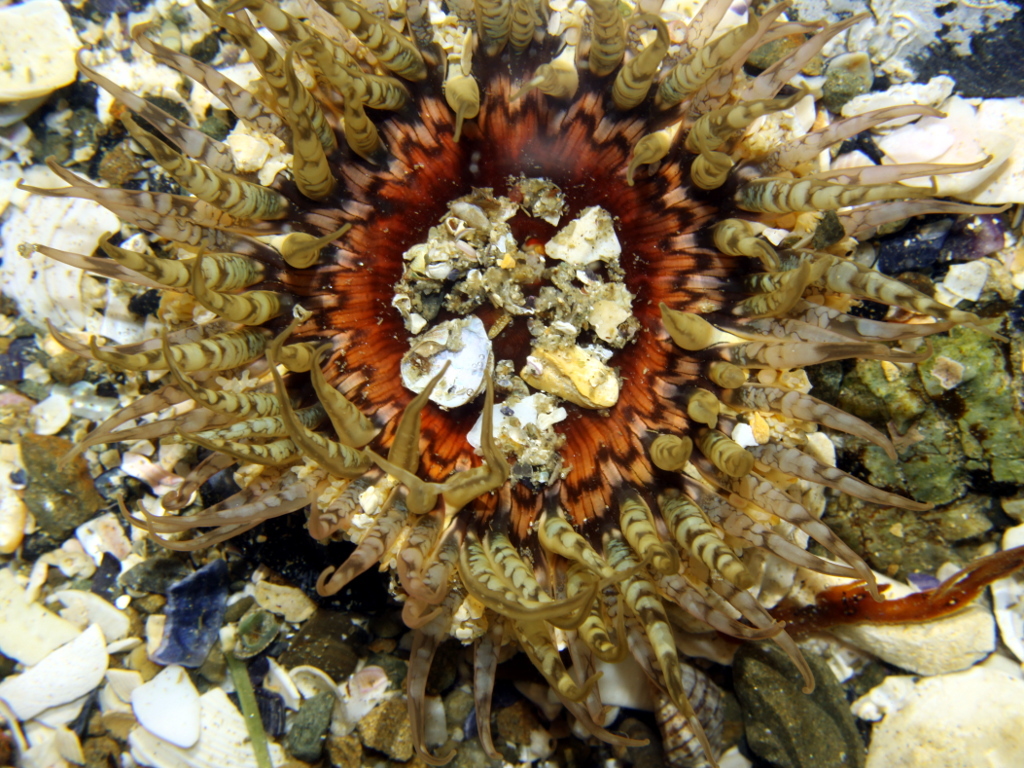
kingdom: Animalia
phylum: Cnidaria
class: Anthozoa
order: Actiniaria
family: Actiniidae
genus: Oulactis
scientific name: Oulactis muscosa
